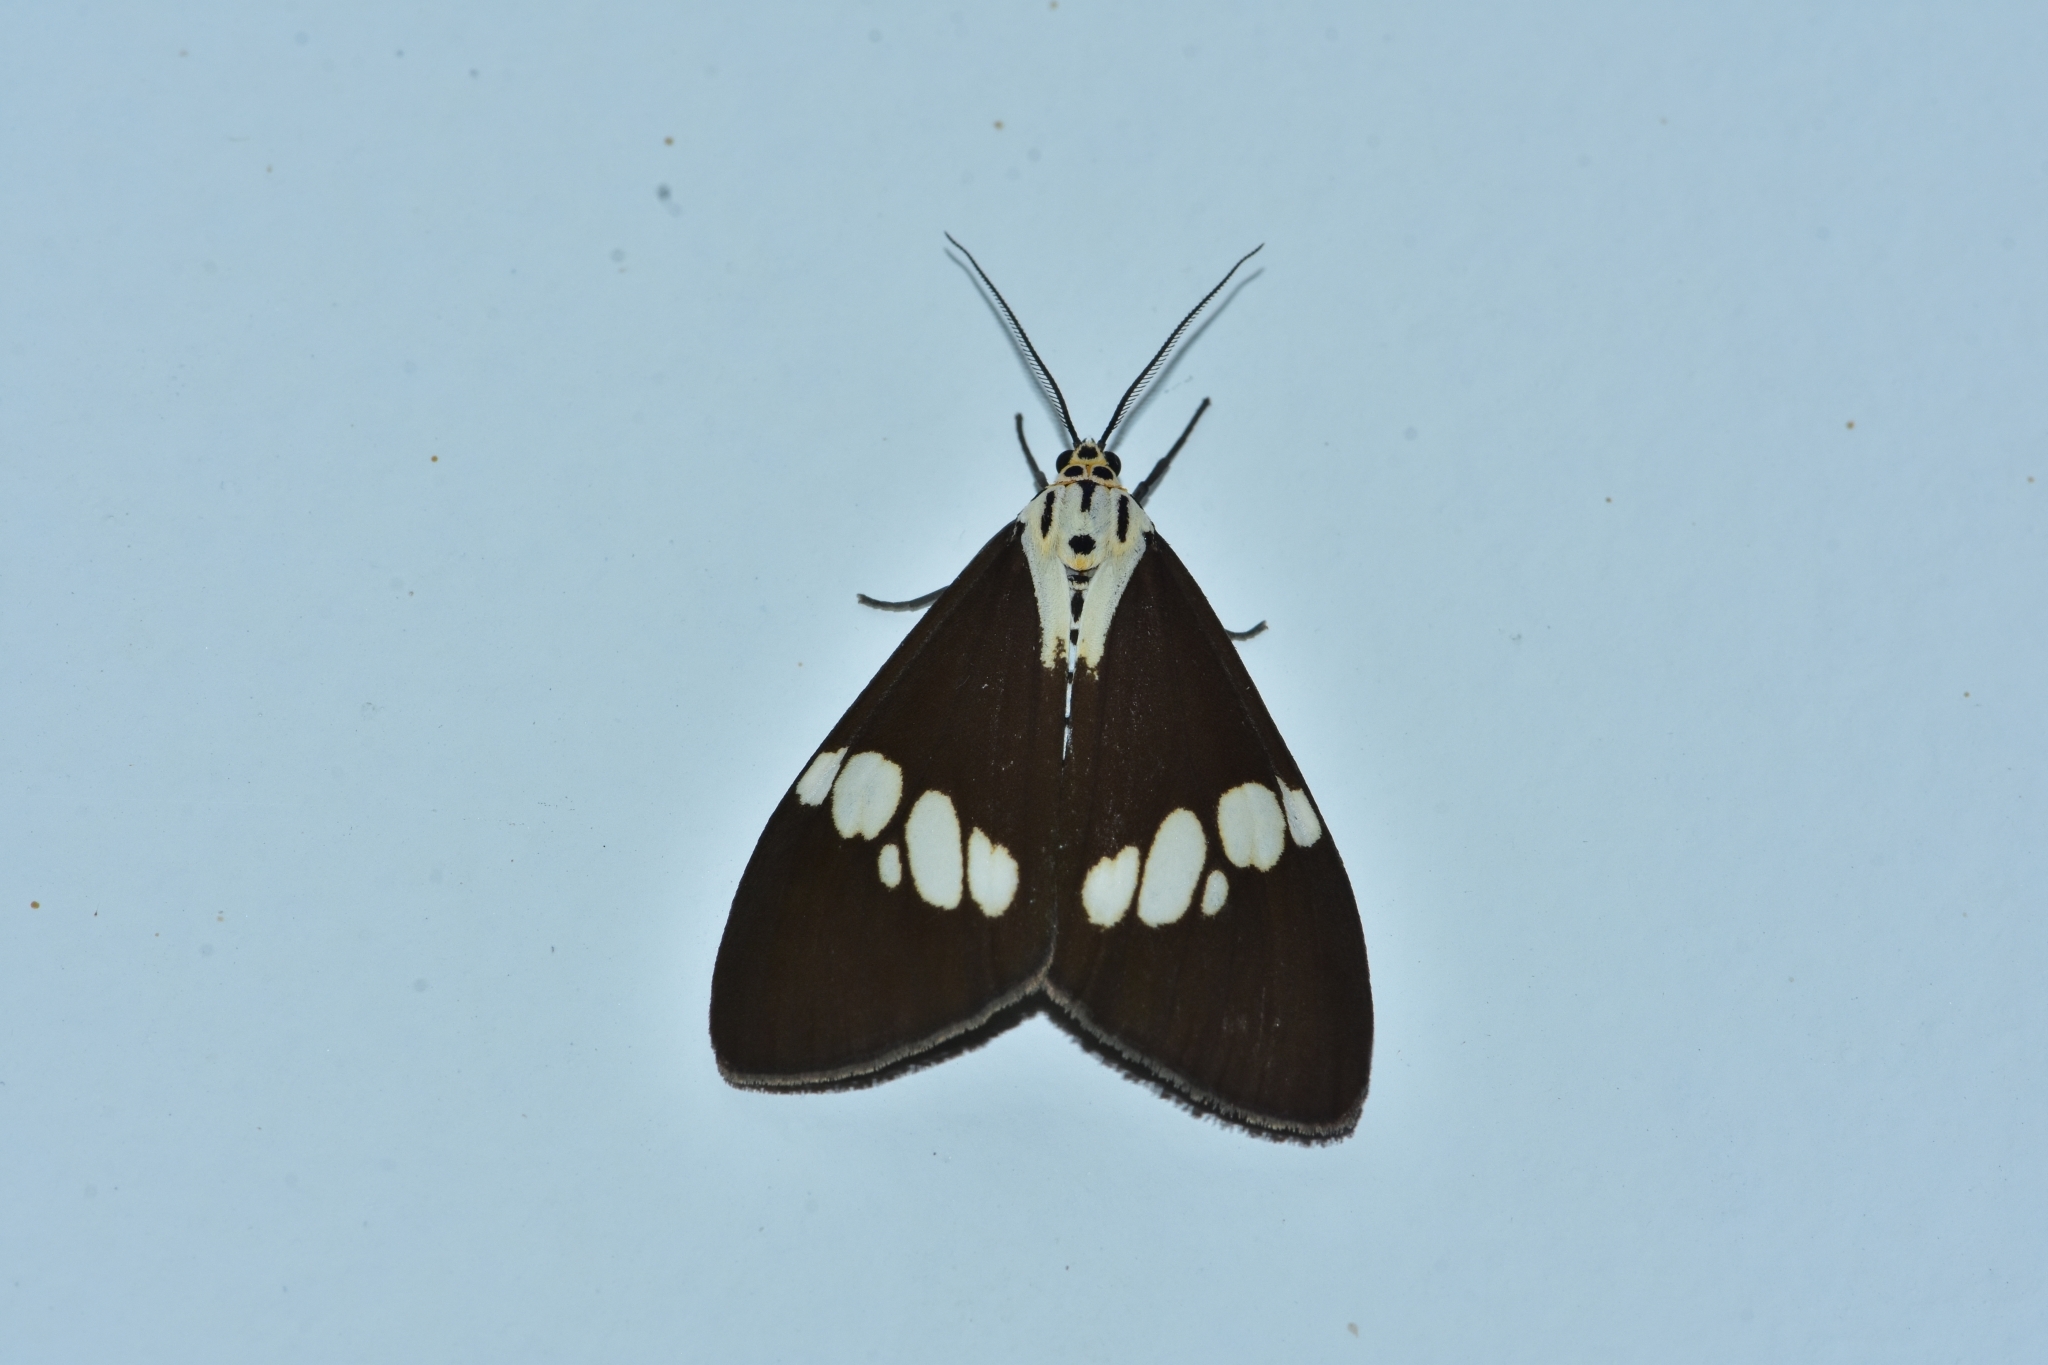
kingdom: Animalia
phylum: Arthropoda
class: Insecta
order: Lepidoptera
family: Erebidae
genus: Nyctemera
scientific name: Nyctemera lacticinia
